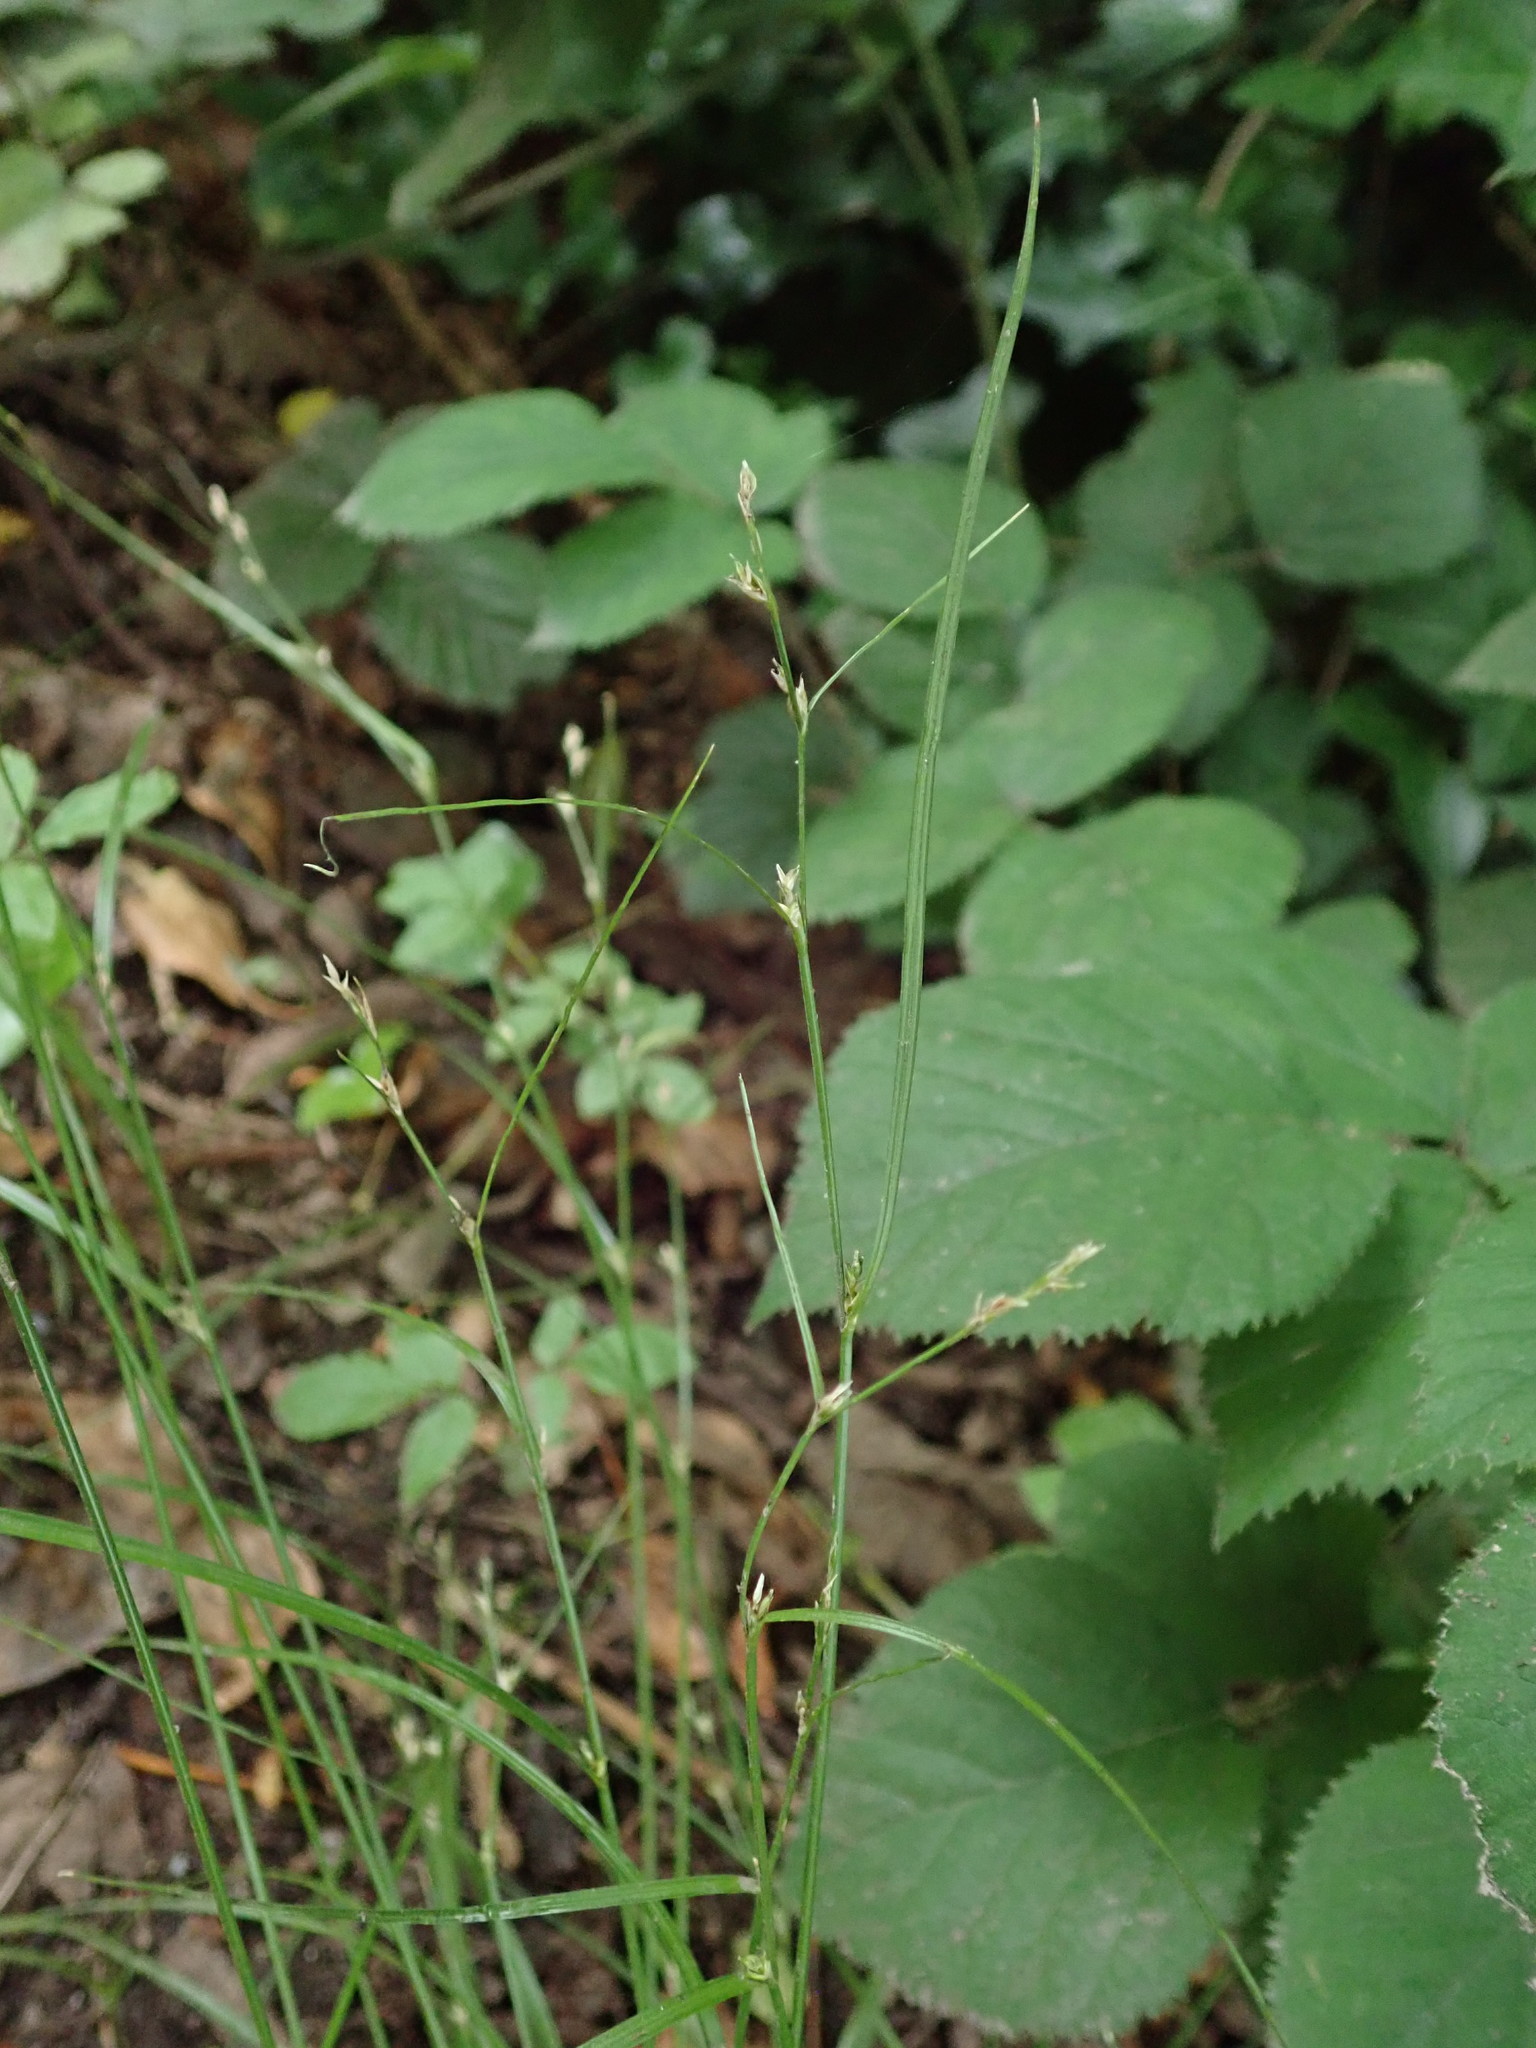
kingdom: Plantae
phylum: Tracheophyta
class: Liliopsida
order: Poales
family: Cyperaceae
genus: Carex
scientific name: Carex remota
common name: Remote sedge
